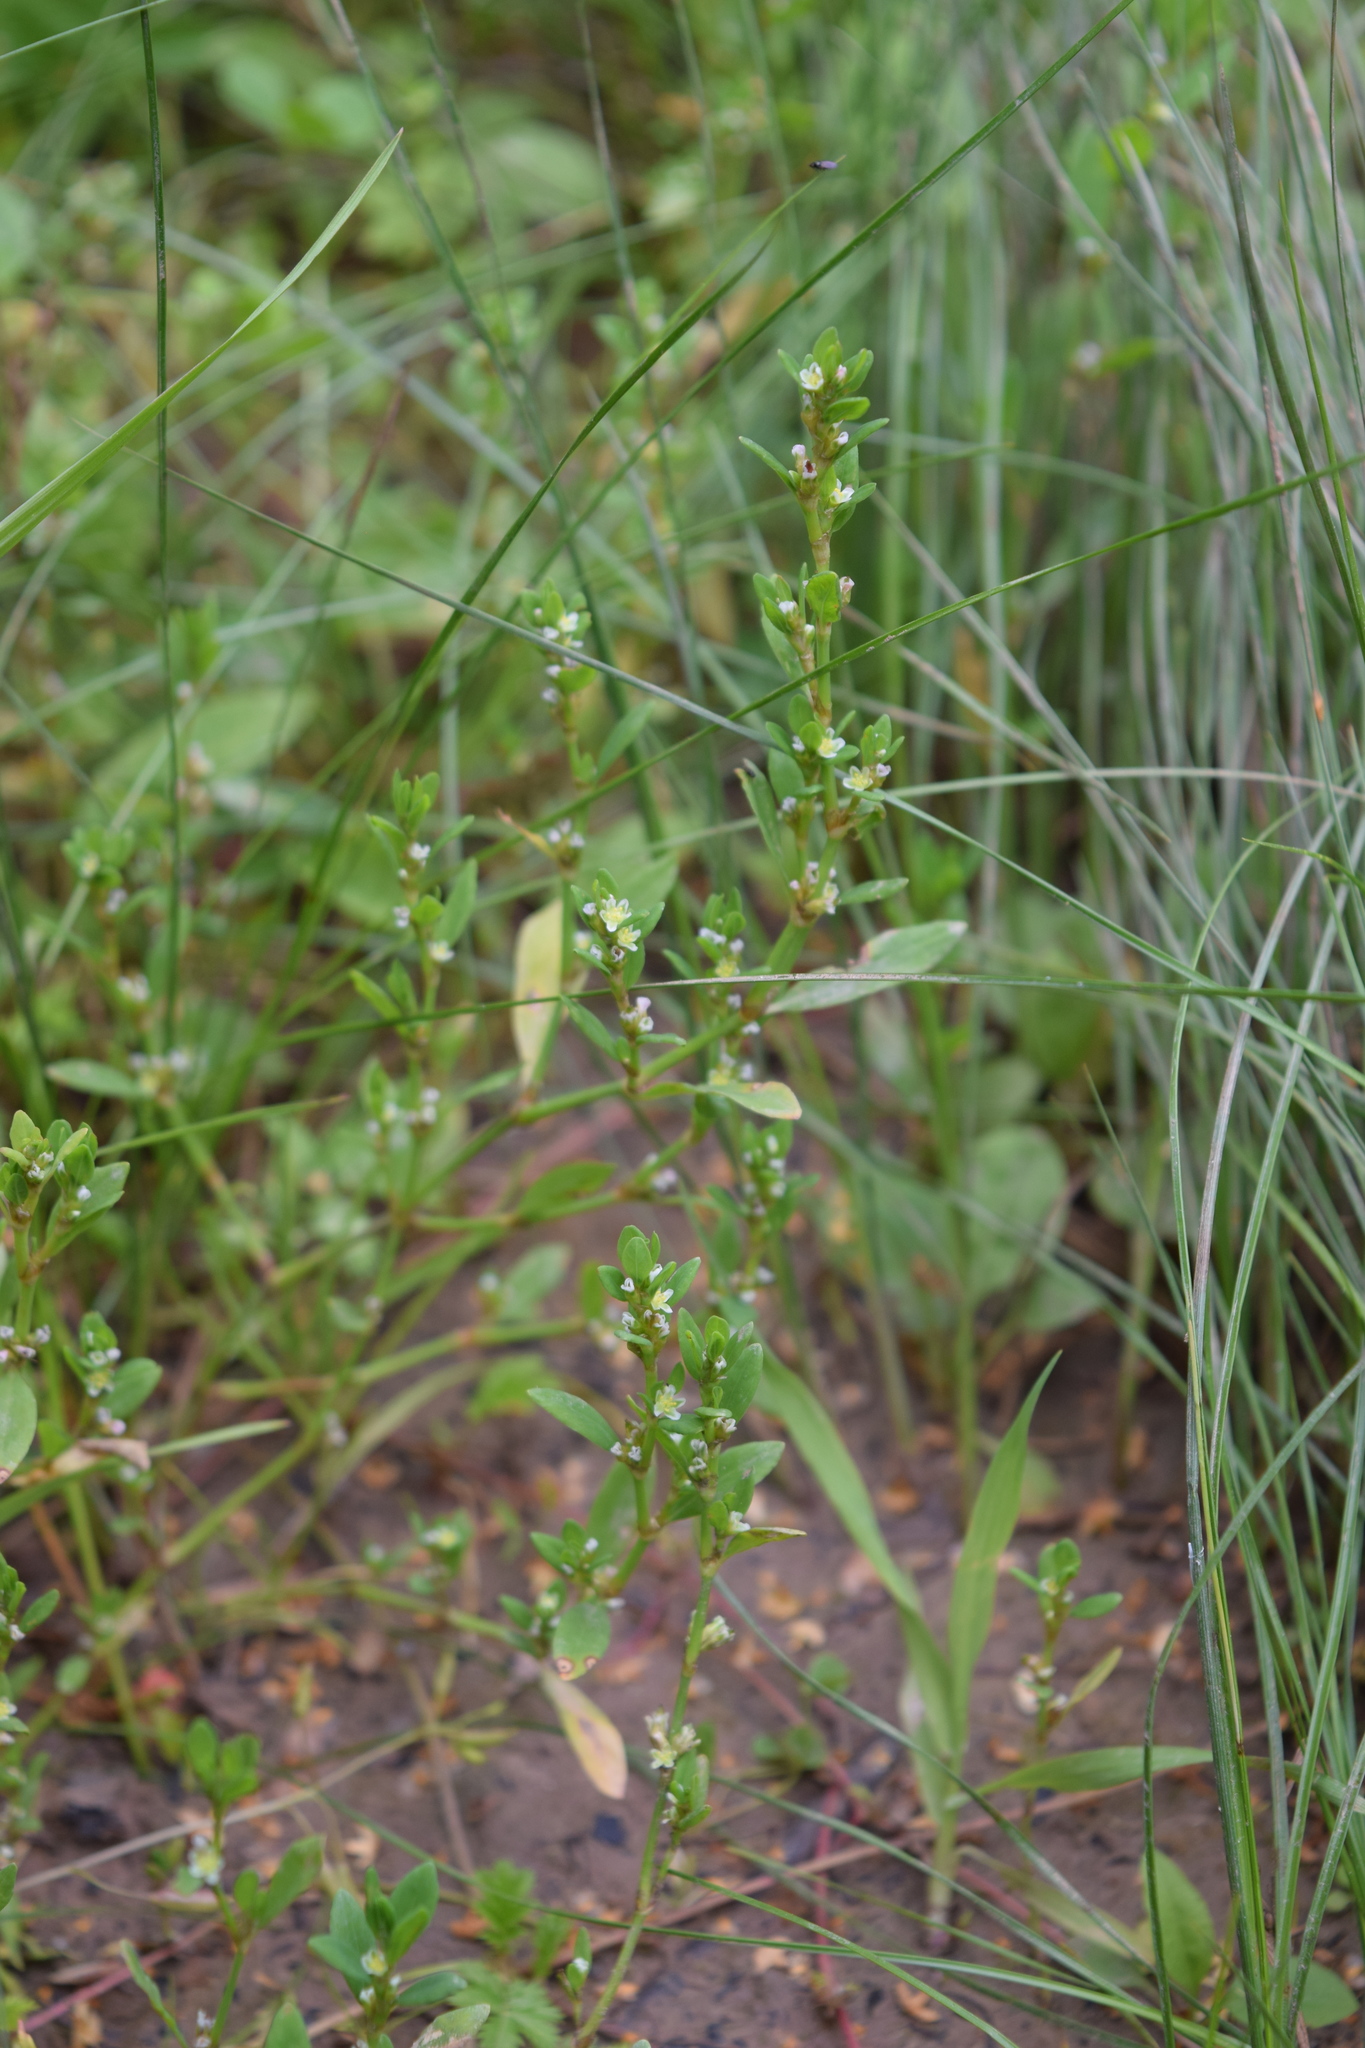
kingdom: Plantae
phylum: Tracheophyta
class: Magnoliopsida
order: Caryophyllales
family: Polygonaceae
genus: Polygonum
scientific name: Polygonum
